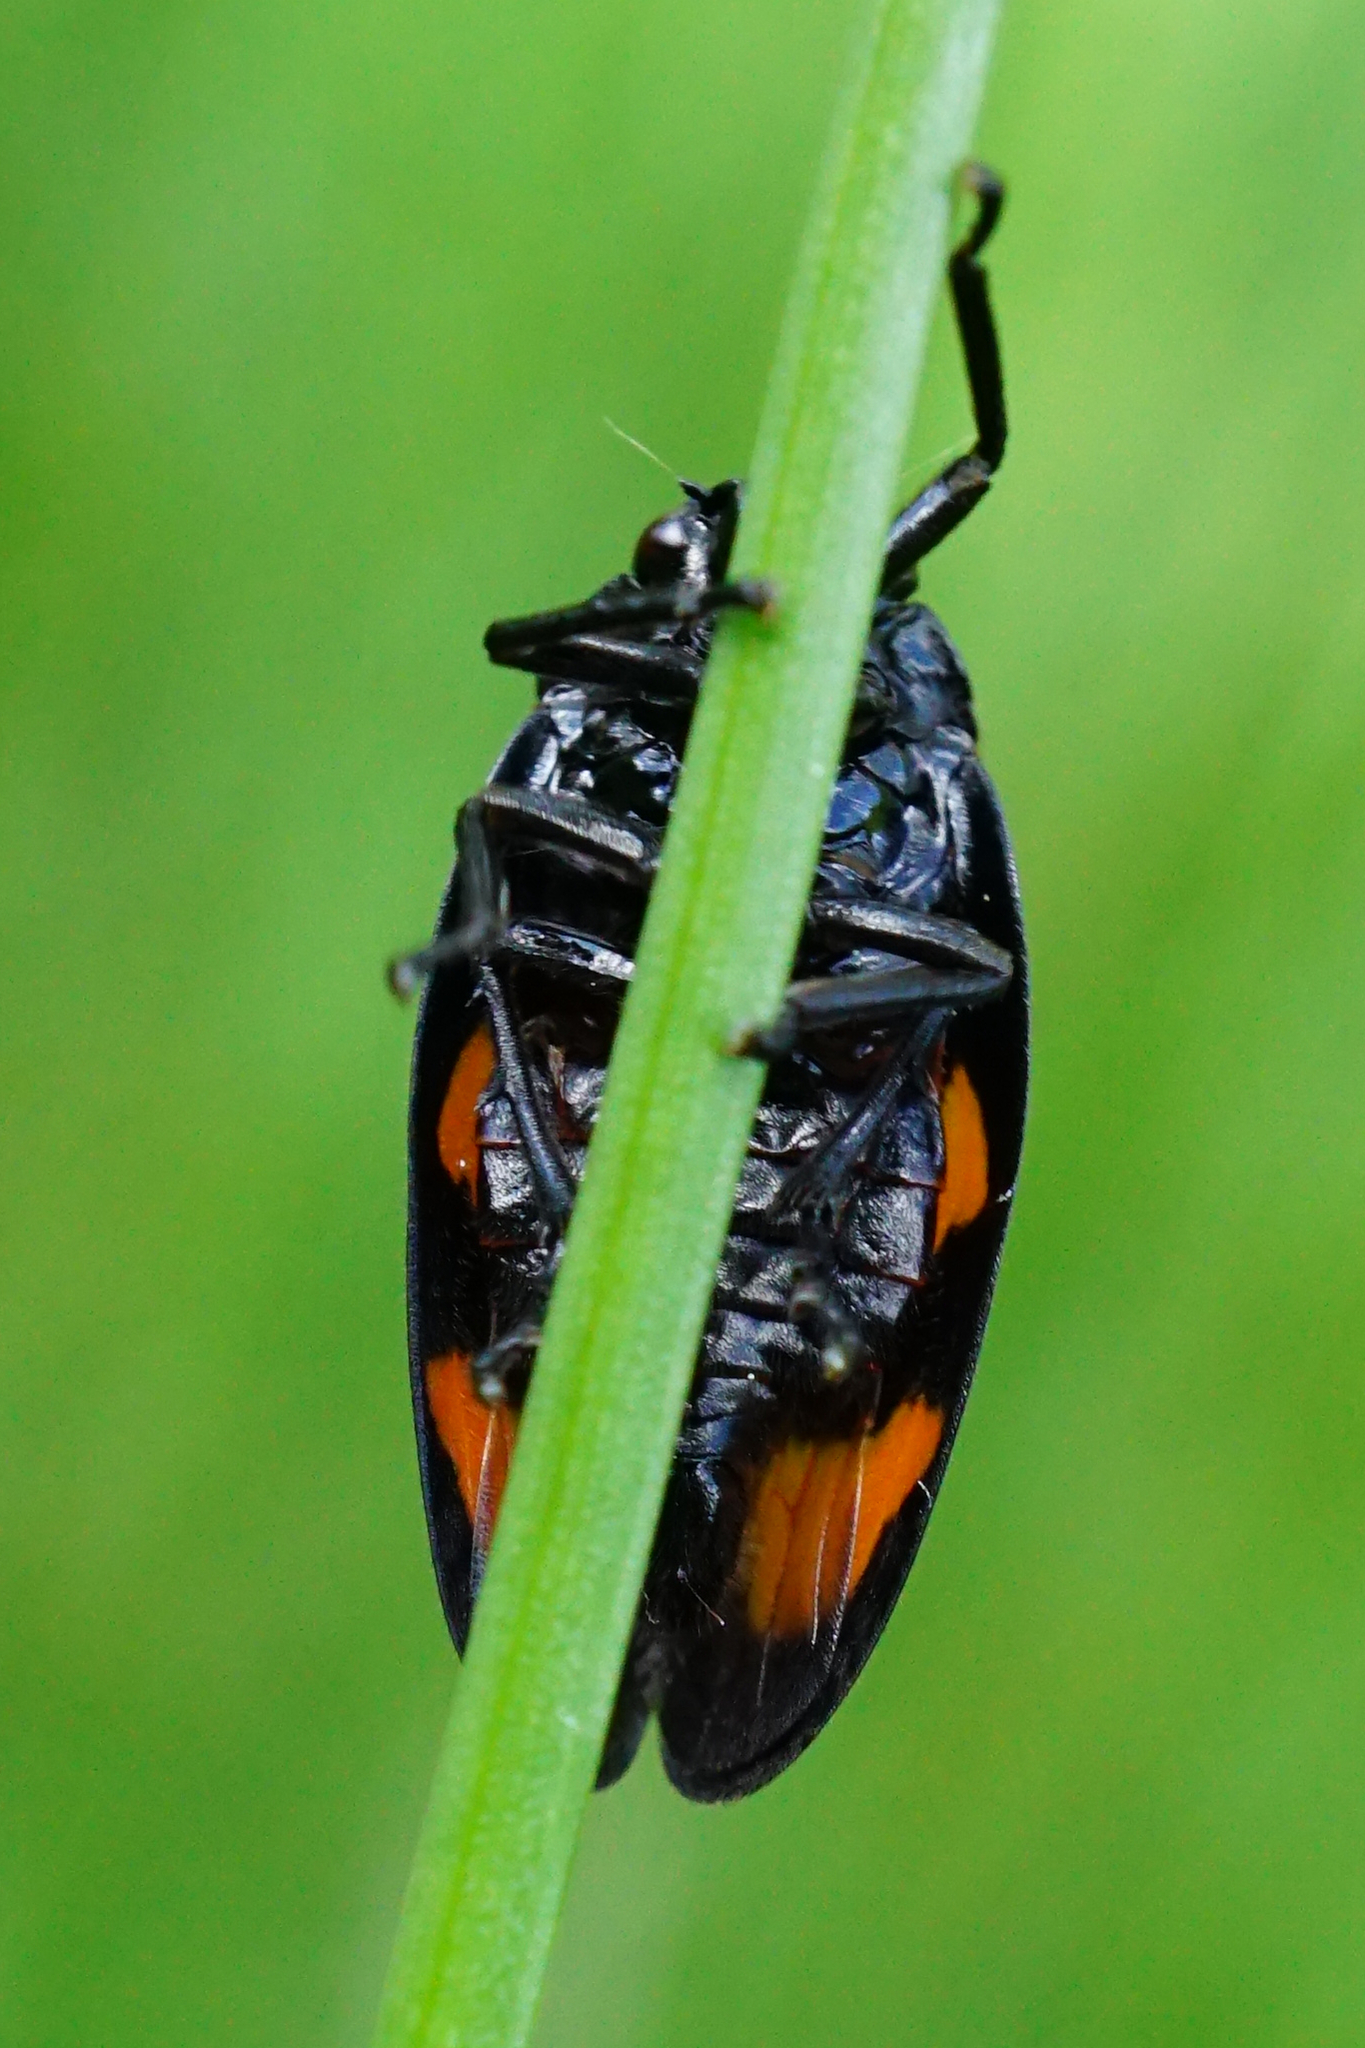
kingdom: Animalia
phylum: Arthropoda
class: Insecta
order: Hemiptera
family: Cercopidae
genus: Cercopis
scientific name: Cercopis vulnerata
